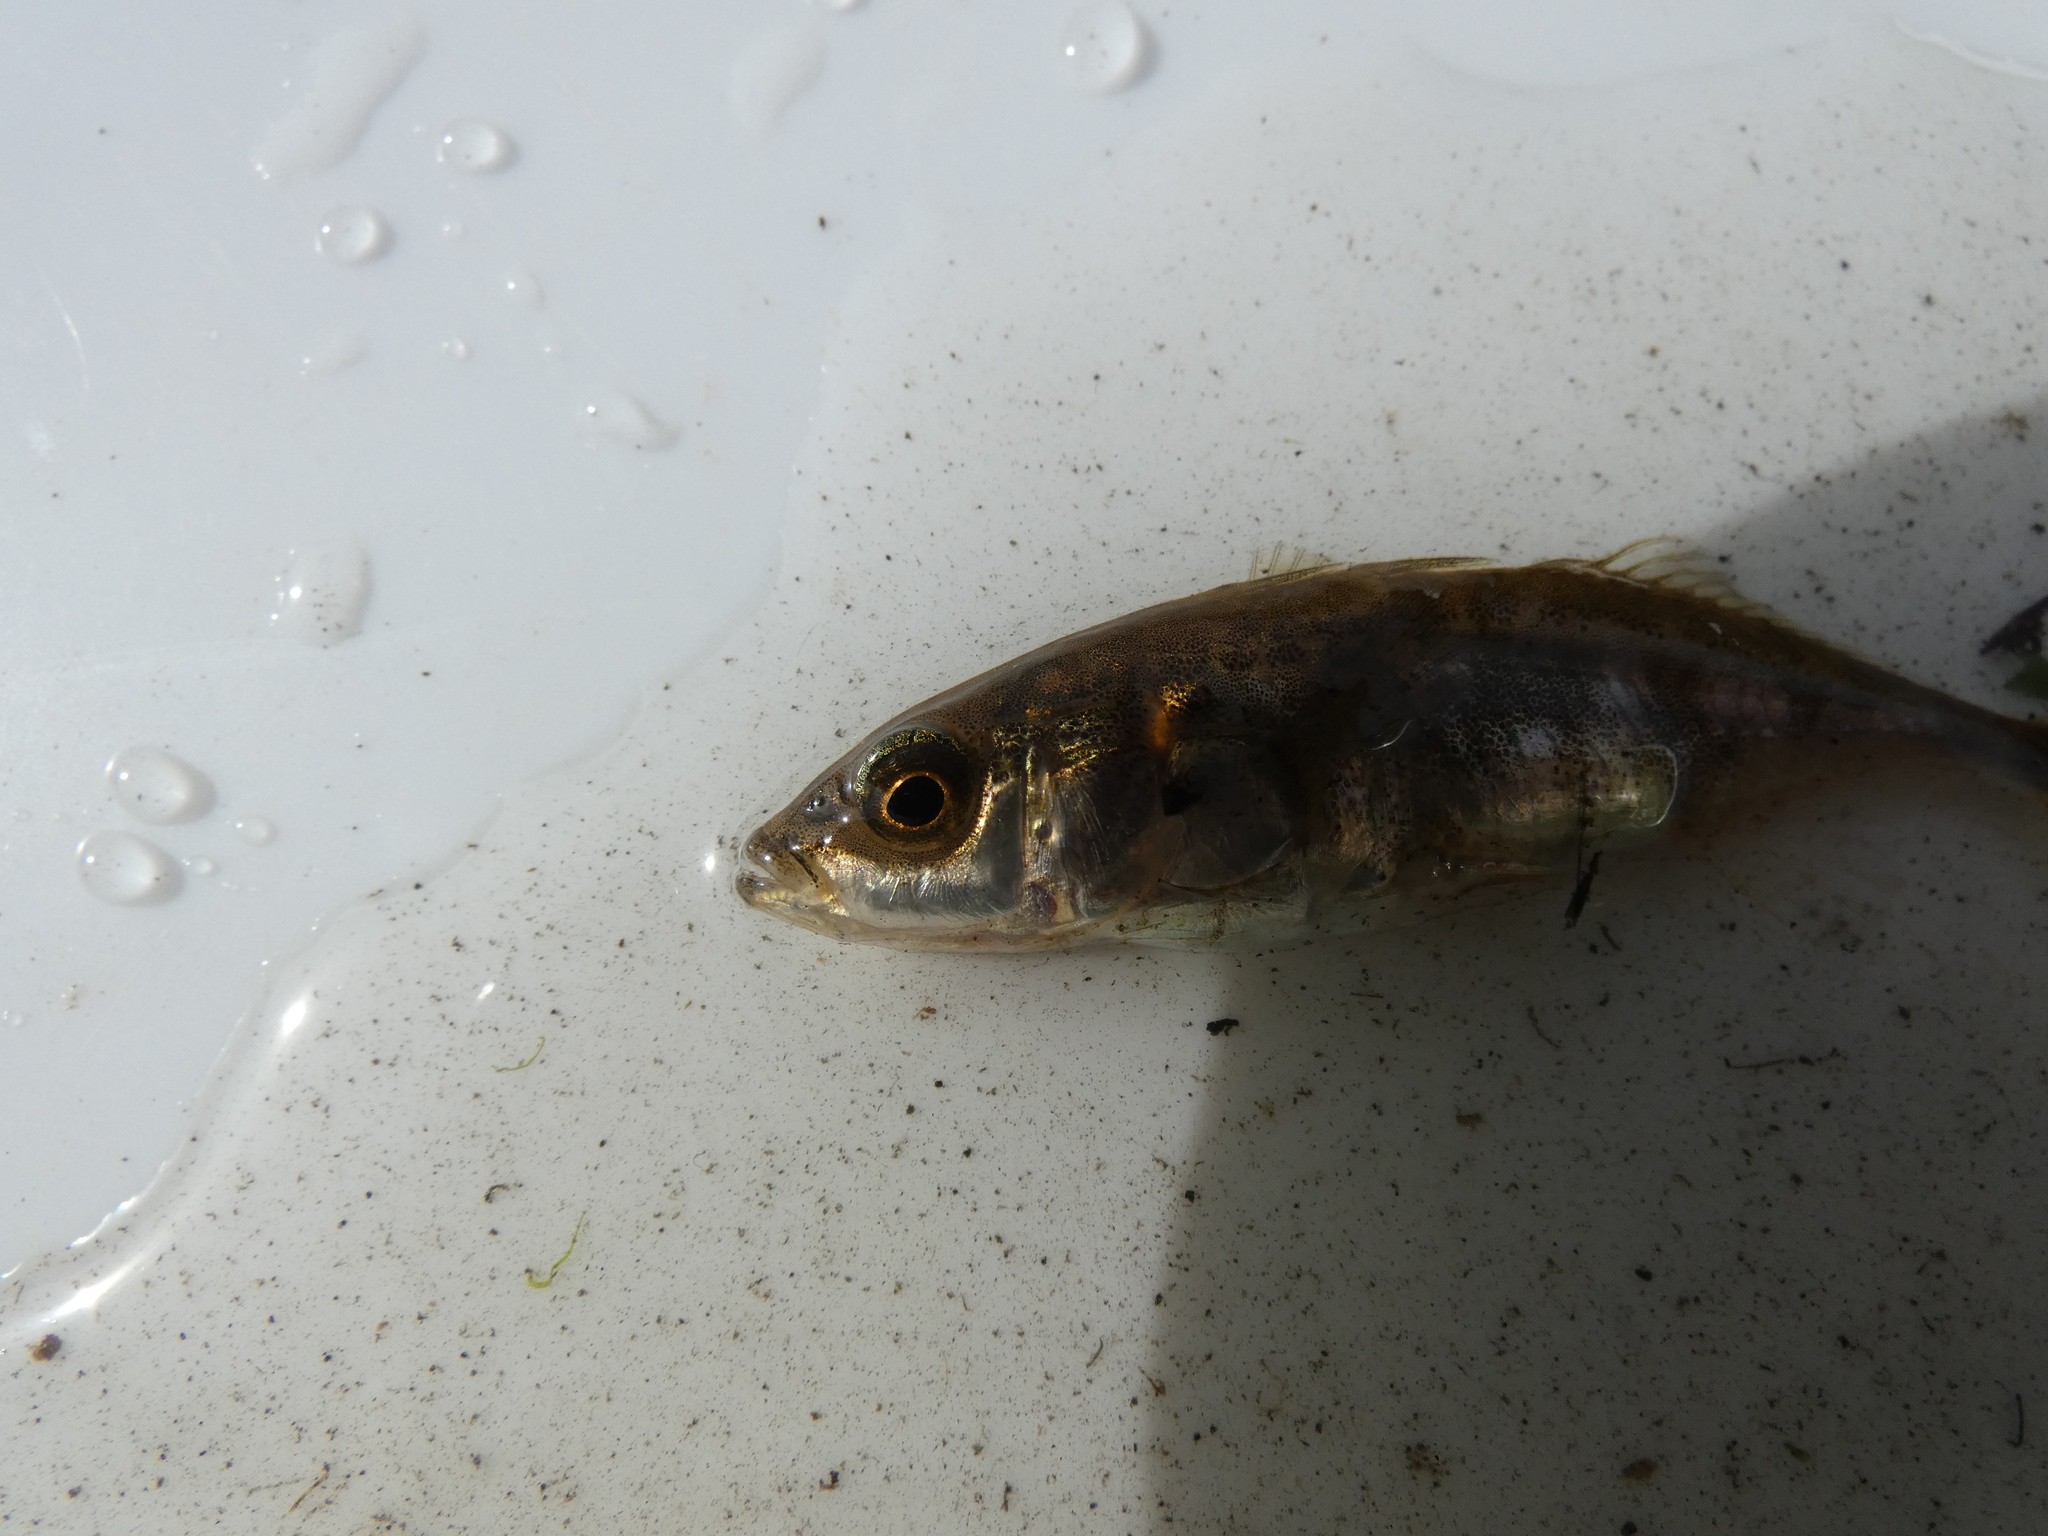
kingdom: Animalia
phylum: Chordata
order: Gasterosteiformes
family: Gasterosteidae
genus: Gasterosteus
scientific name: Gasterosteus aculeatus
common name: Three-spined stickleback
